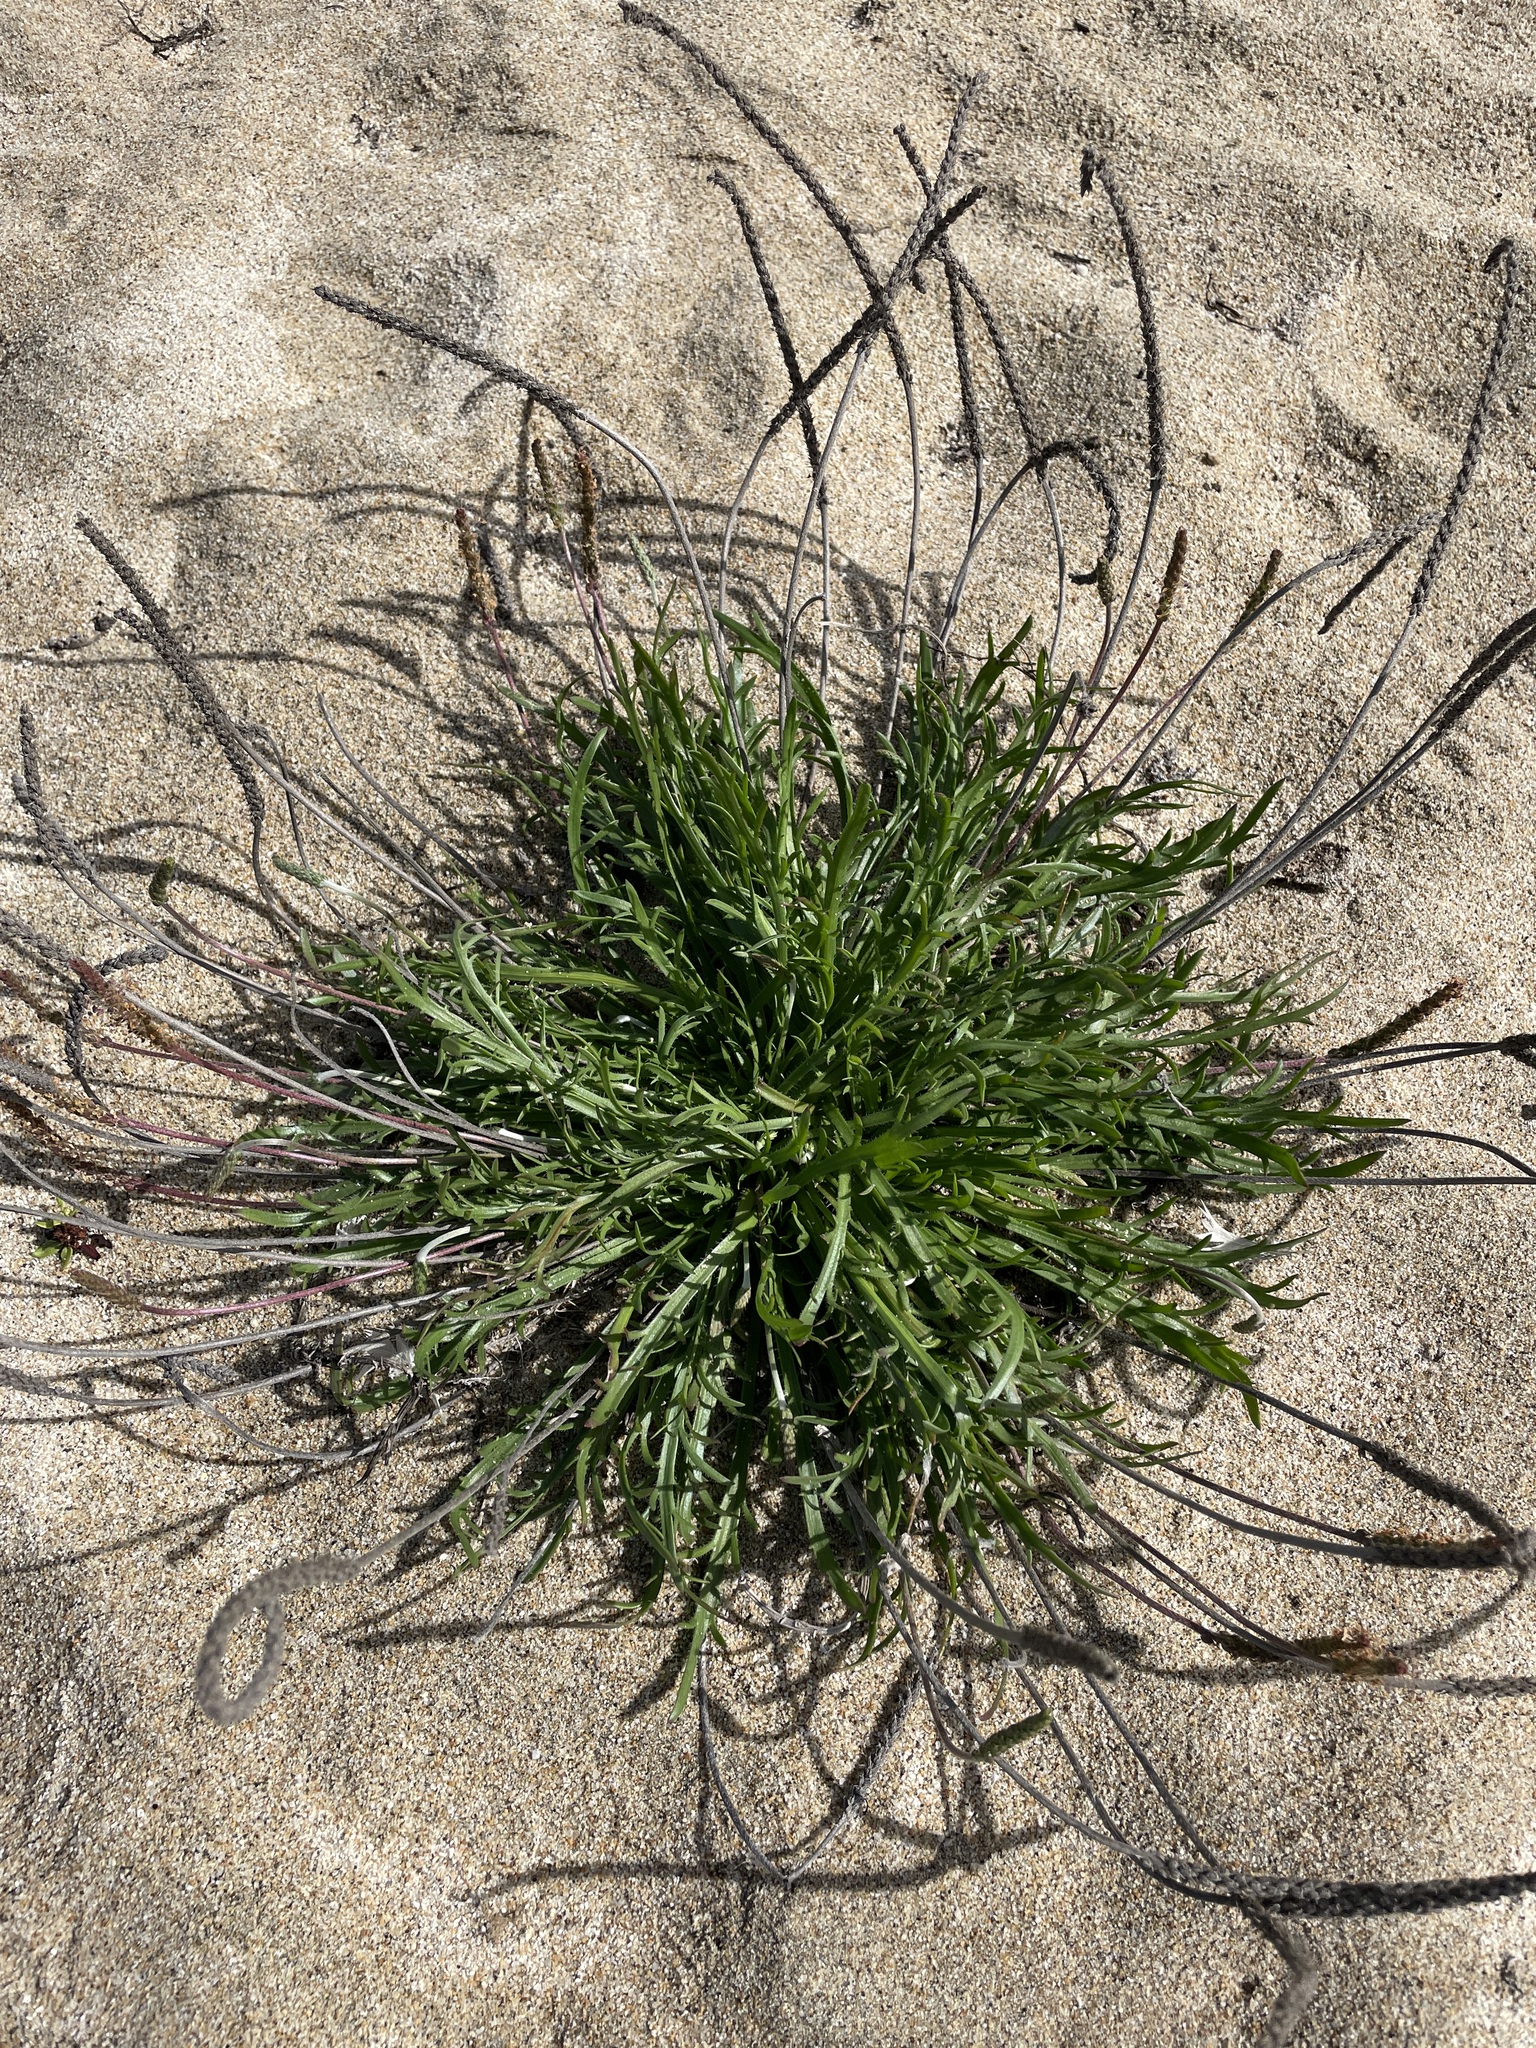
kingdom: Plantae
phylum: Tracheophyta
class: Magnoliopsida
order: Lamiales
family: Plantaginaceae
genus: Plantago
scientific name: Plantago coronopus
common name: Buck's-horn plantain
